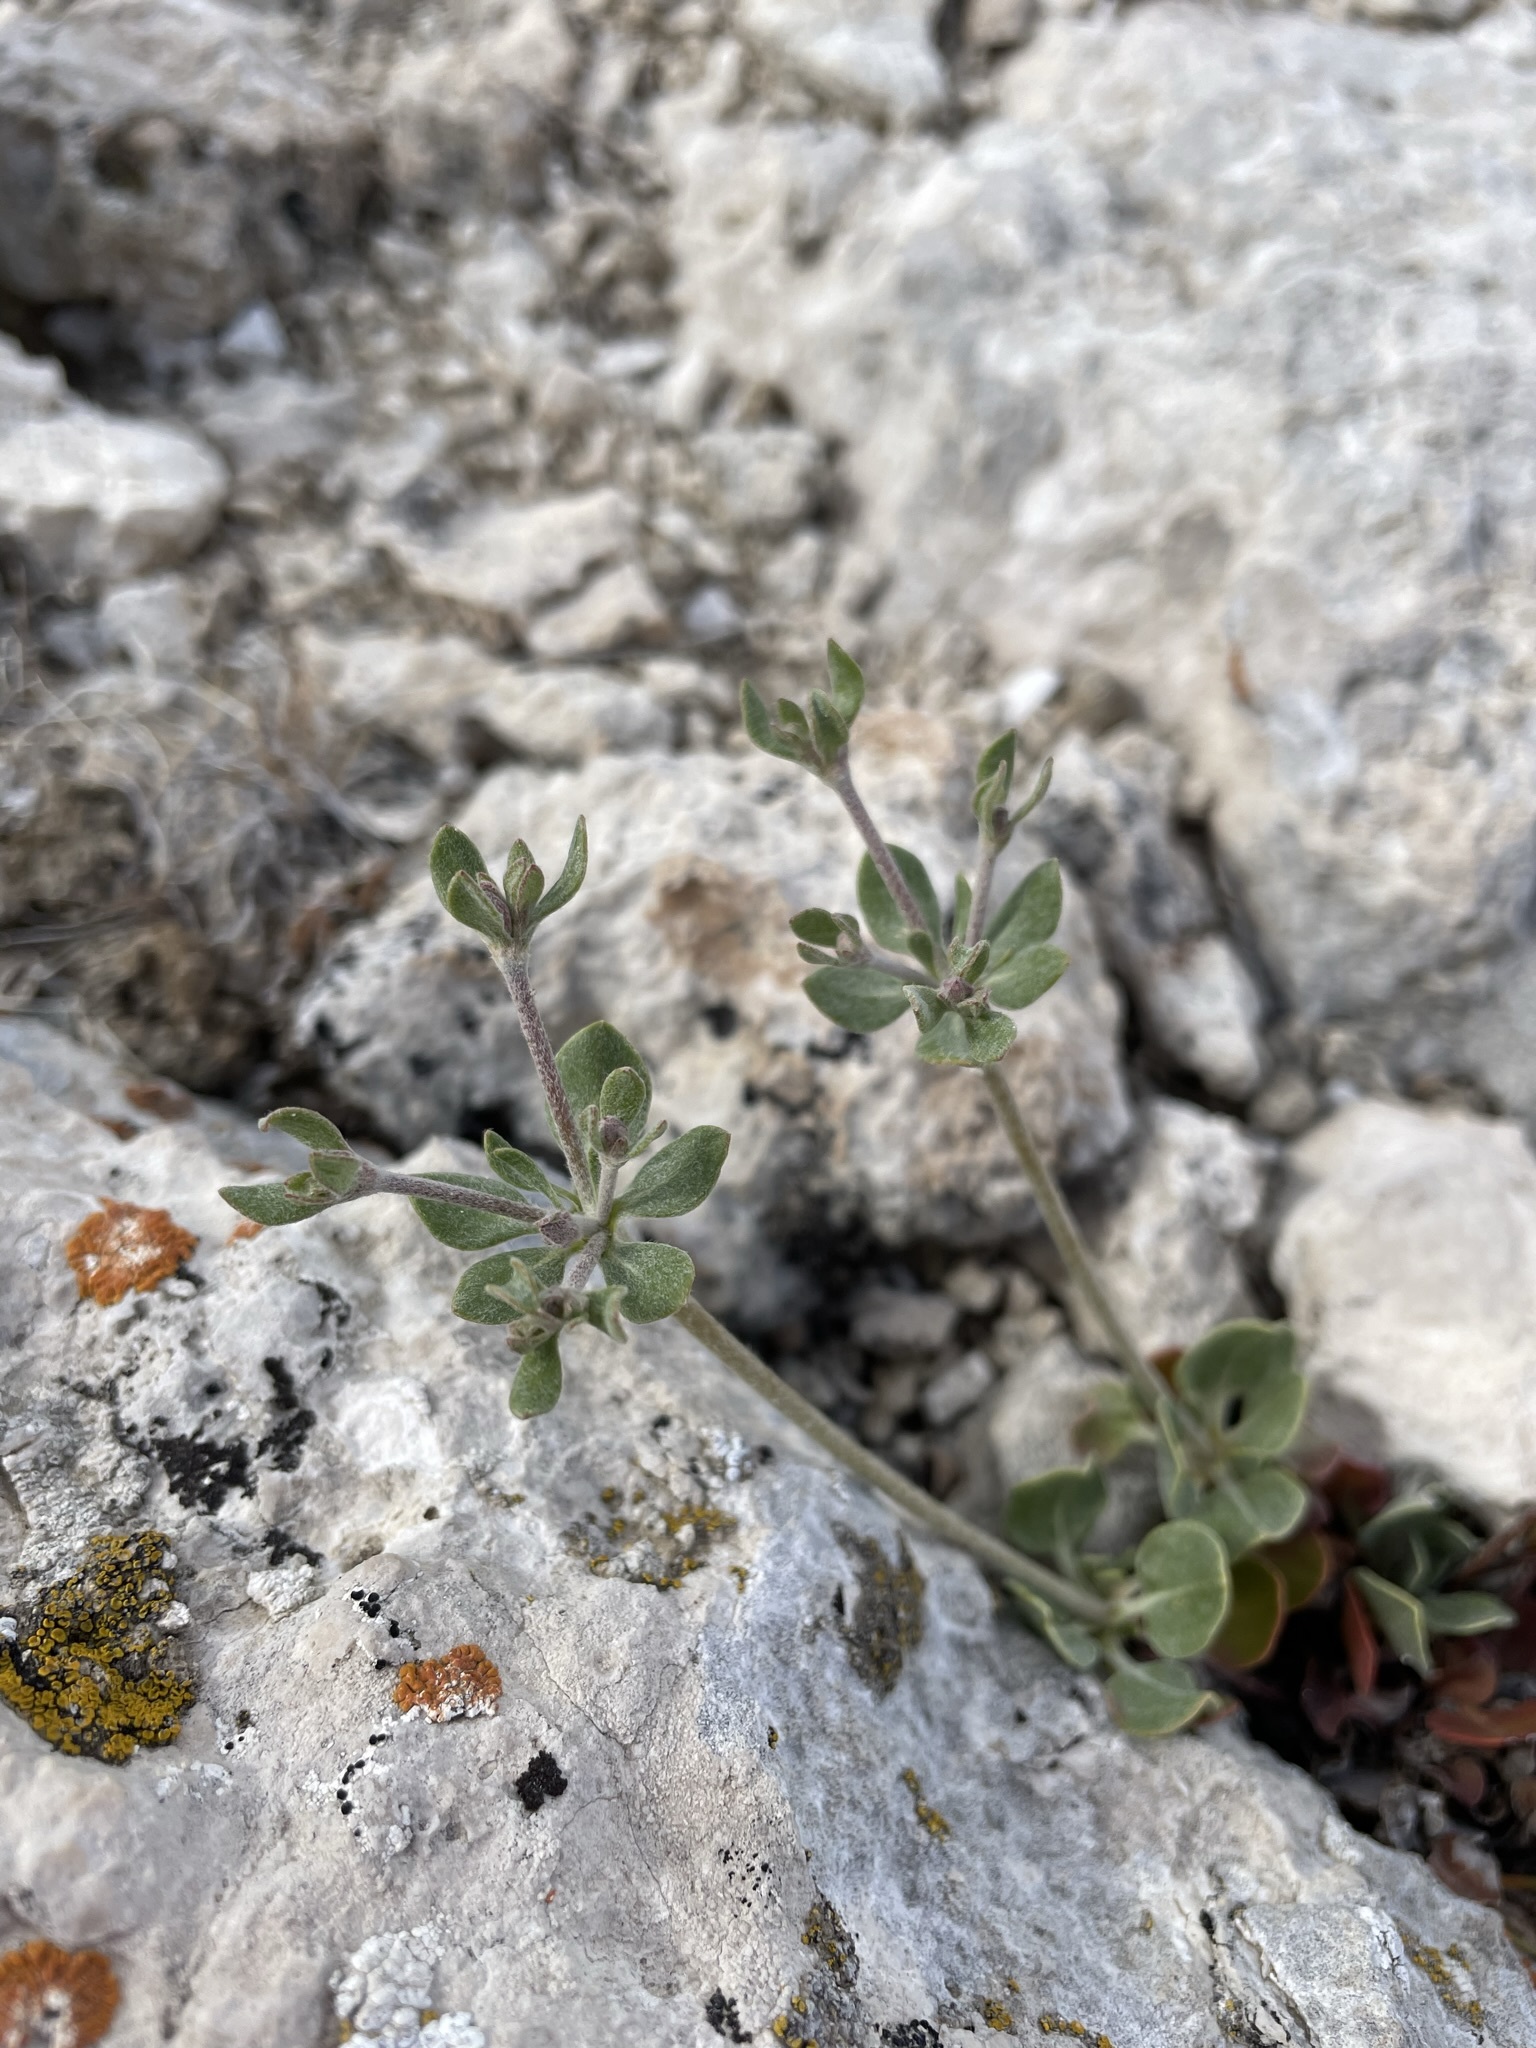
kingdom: Plantae
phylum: Tracheophyta
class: Magnoliopsida
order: Caryophyllales
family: Polygonaceae
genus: Eriogonum
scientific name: Eriogonum umbellatum
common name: Sulfur-buckwheat
